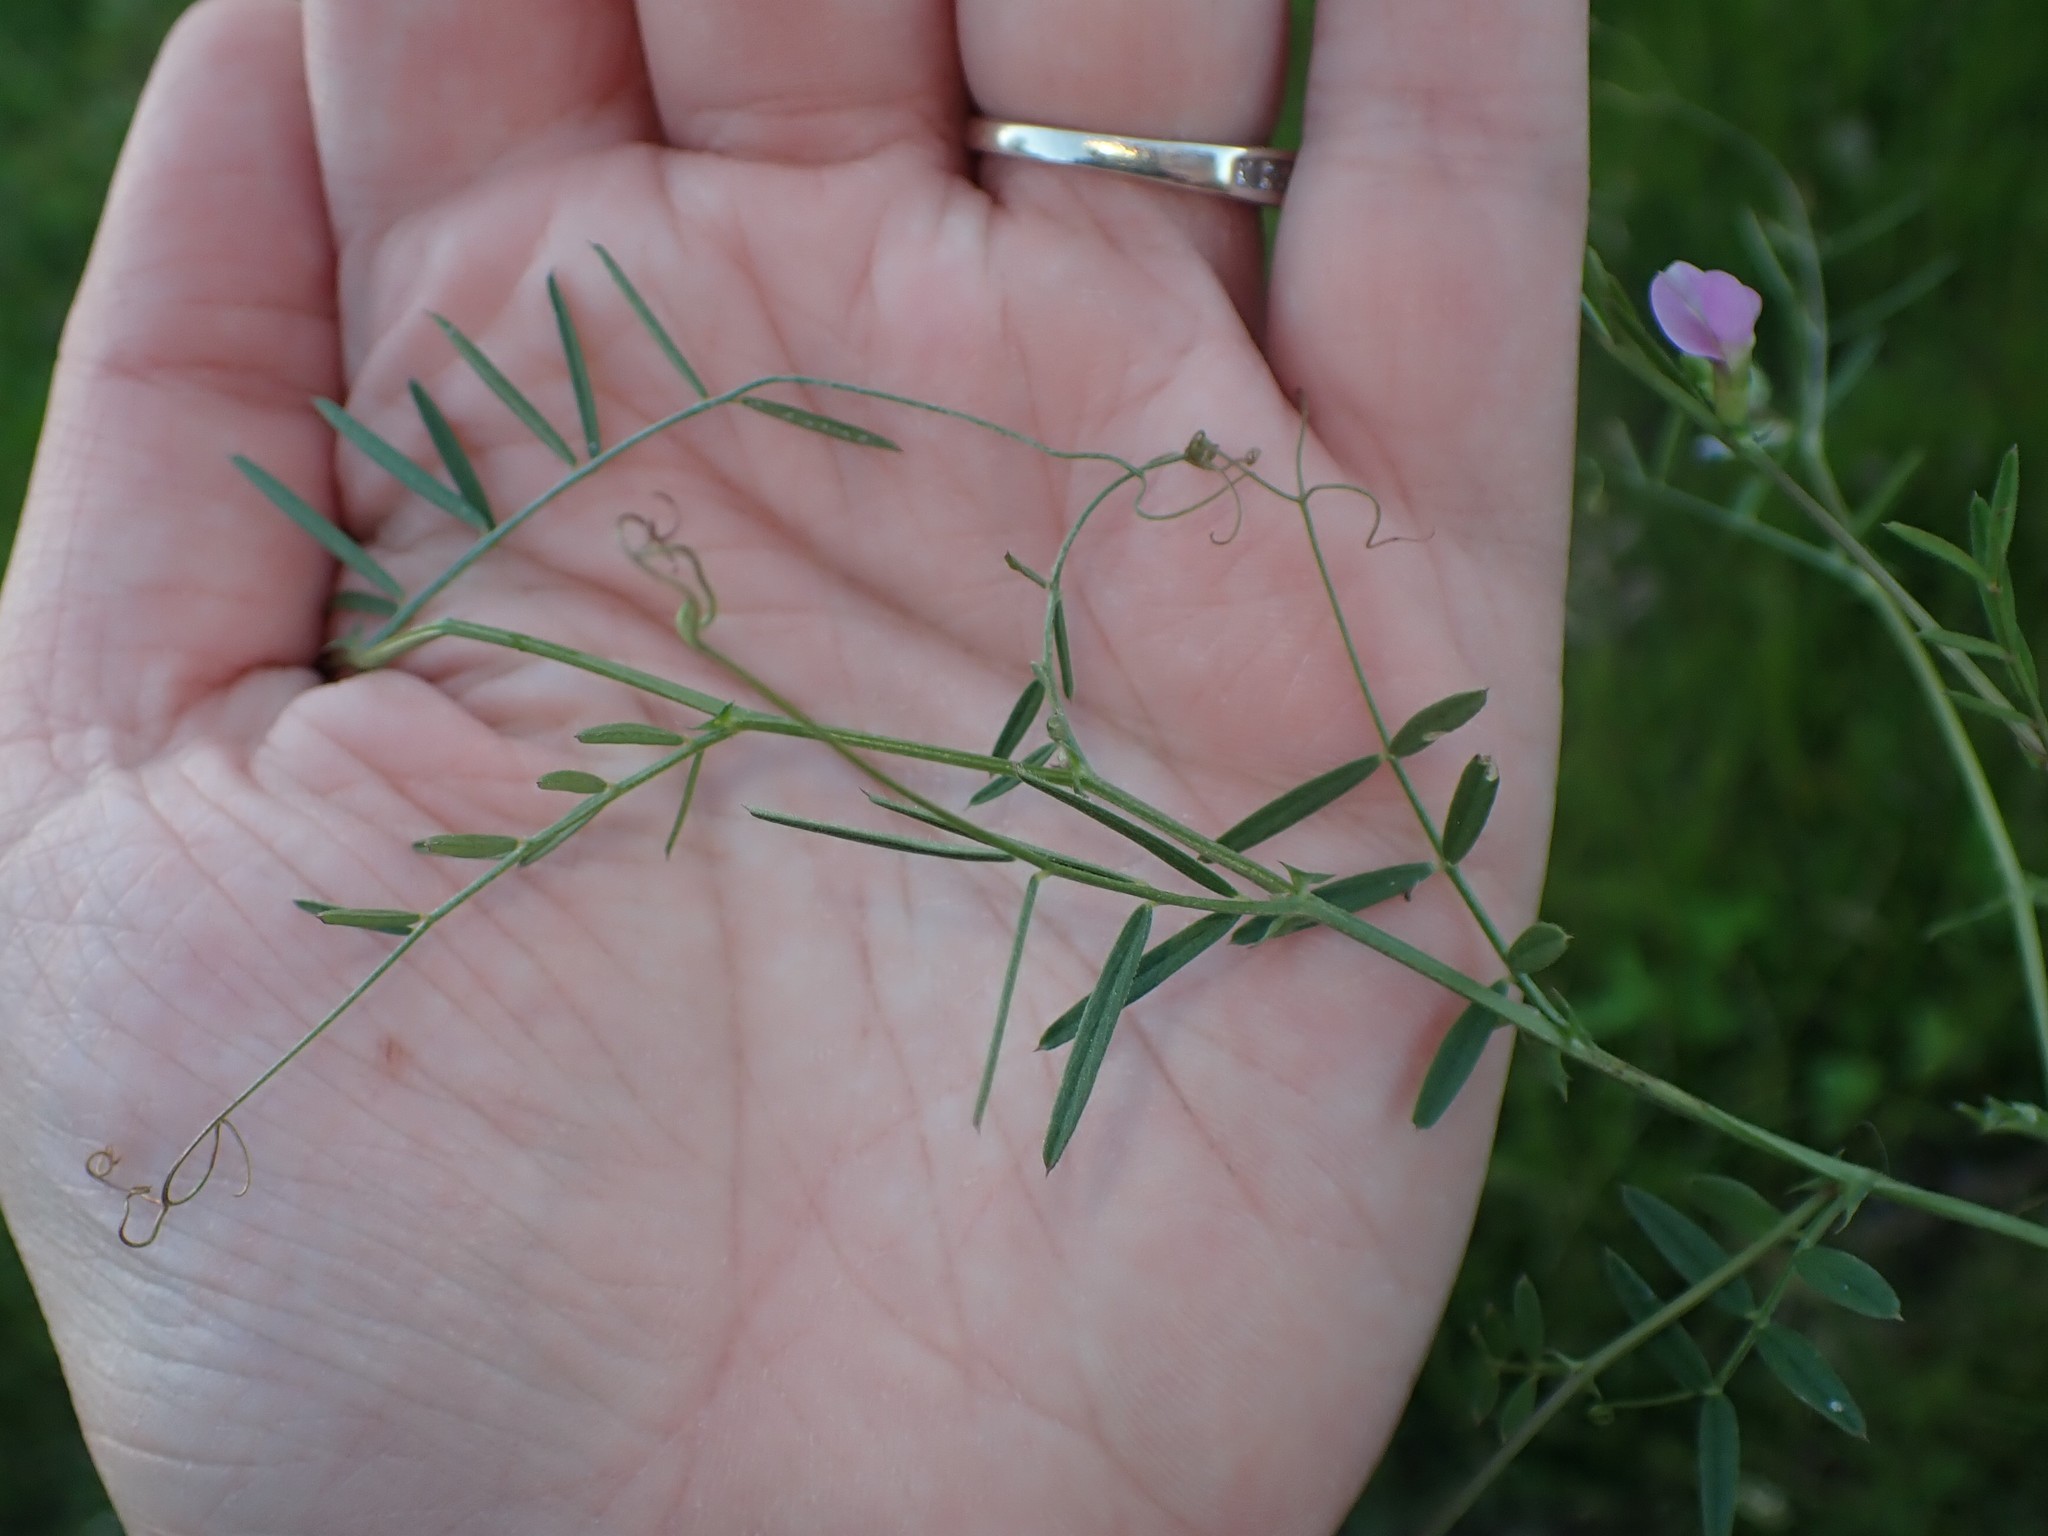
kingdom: Plantae
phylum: Tracheophyta
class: Magnoliopsida
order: Fabales
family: Fabaceae
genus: Vicia
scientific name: Vicia sativa
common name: Garden vetch
